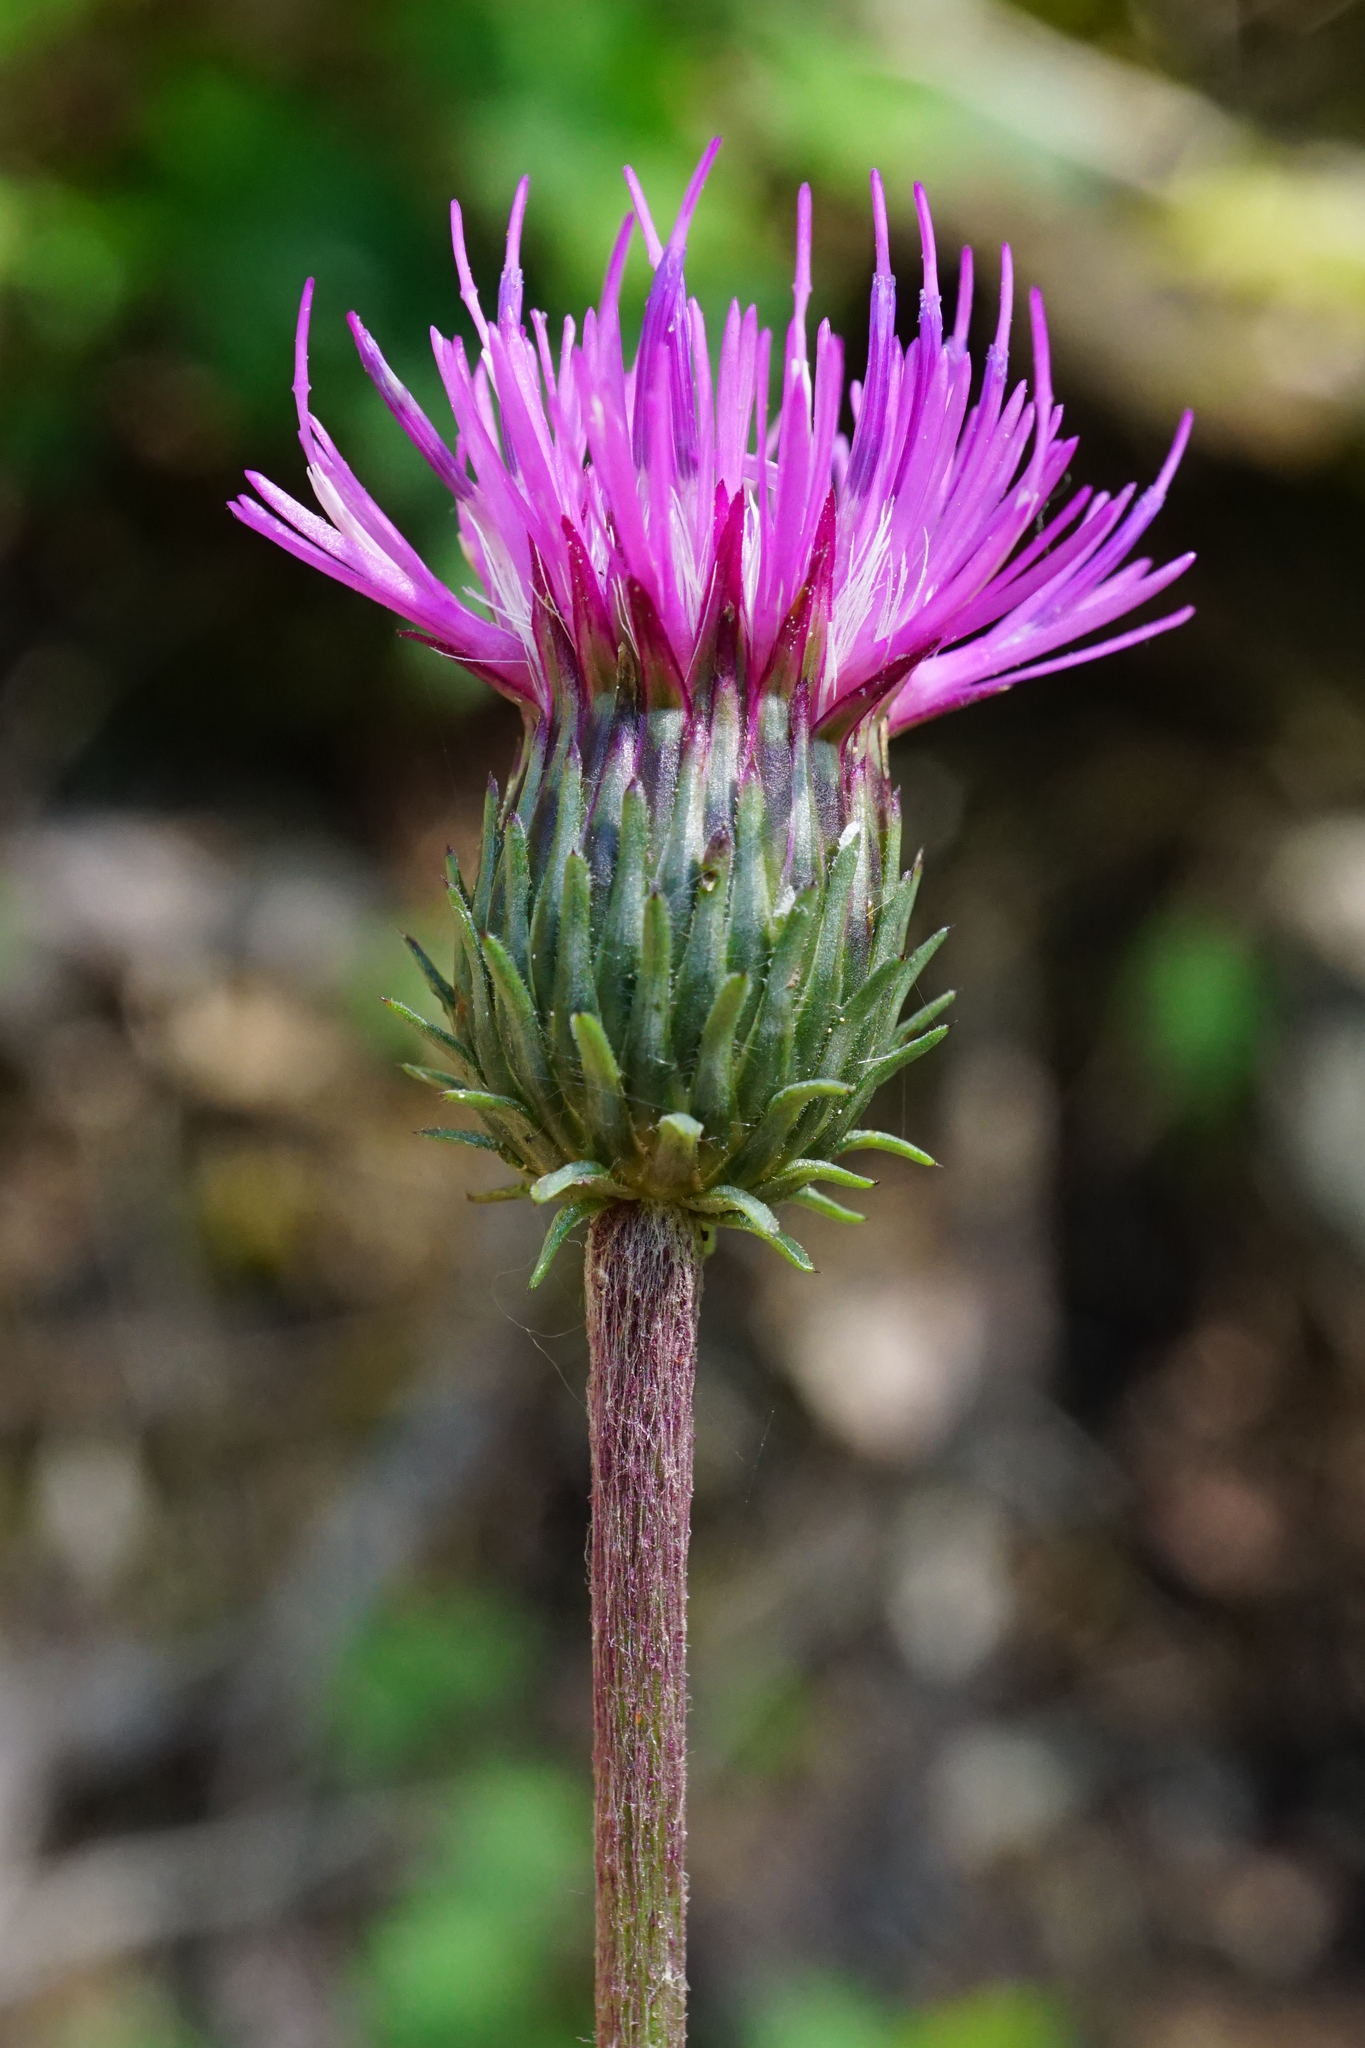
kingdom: Plantae
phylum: Tracheophyta
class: Magnoliopsida
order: Asterales
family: Asteraceae
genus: Carduus
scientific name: Carduus defloratus
